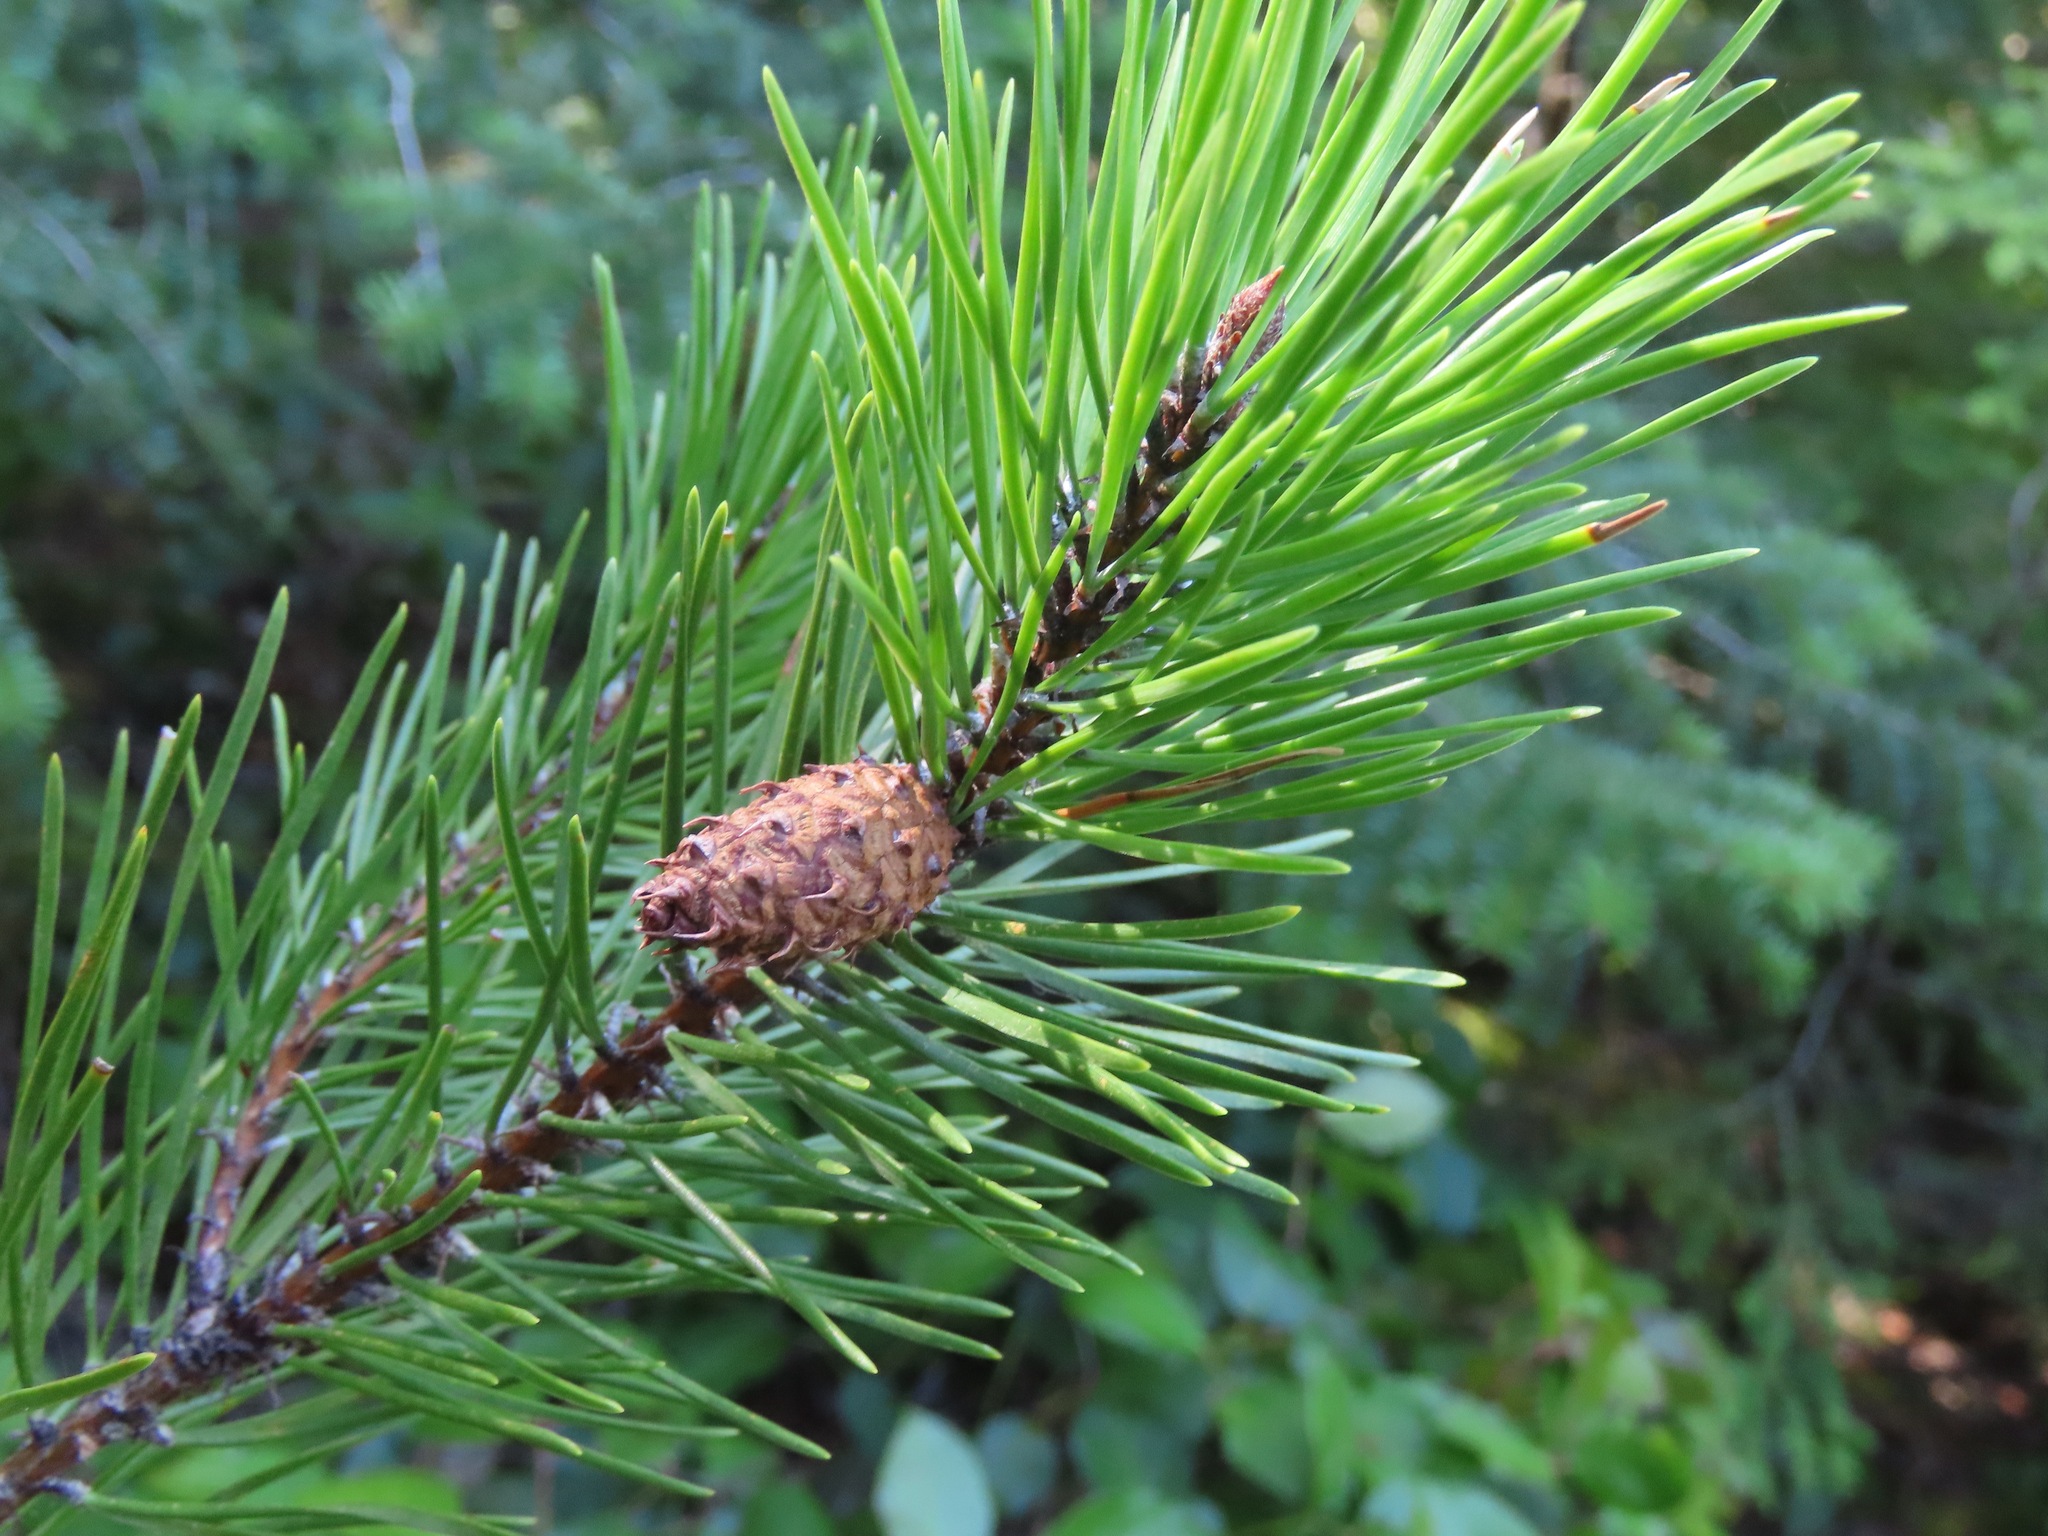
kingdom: Plantae
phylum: Tracheophyta
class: Pinopsida
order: Pinales
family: Pinaceae
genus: Pinus
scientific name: Pinus contorta
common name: Lodgepole pine
